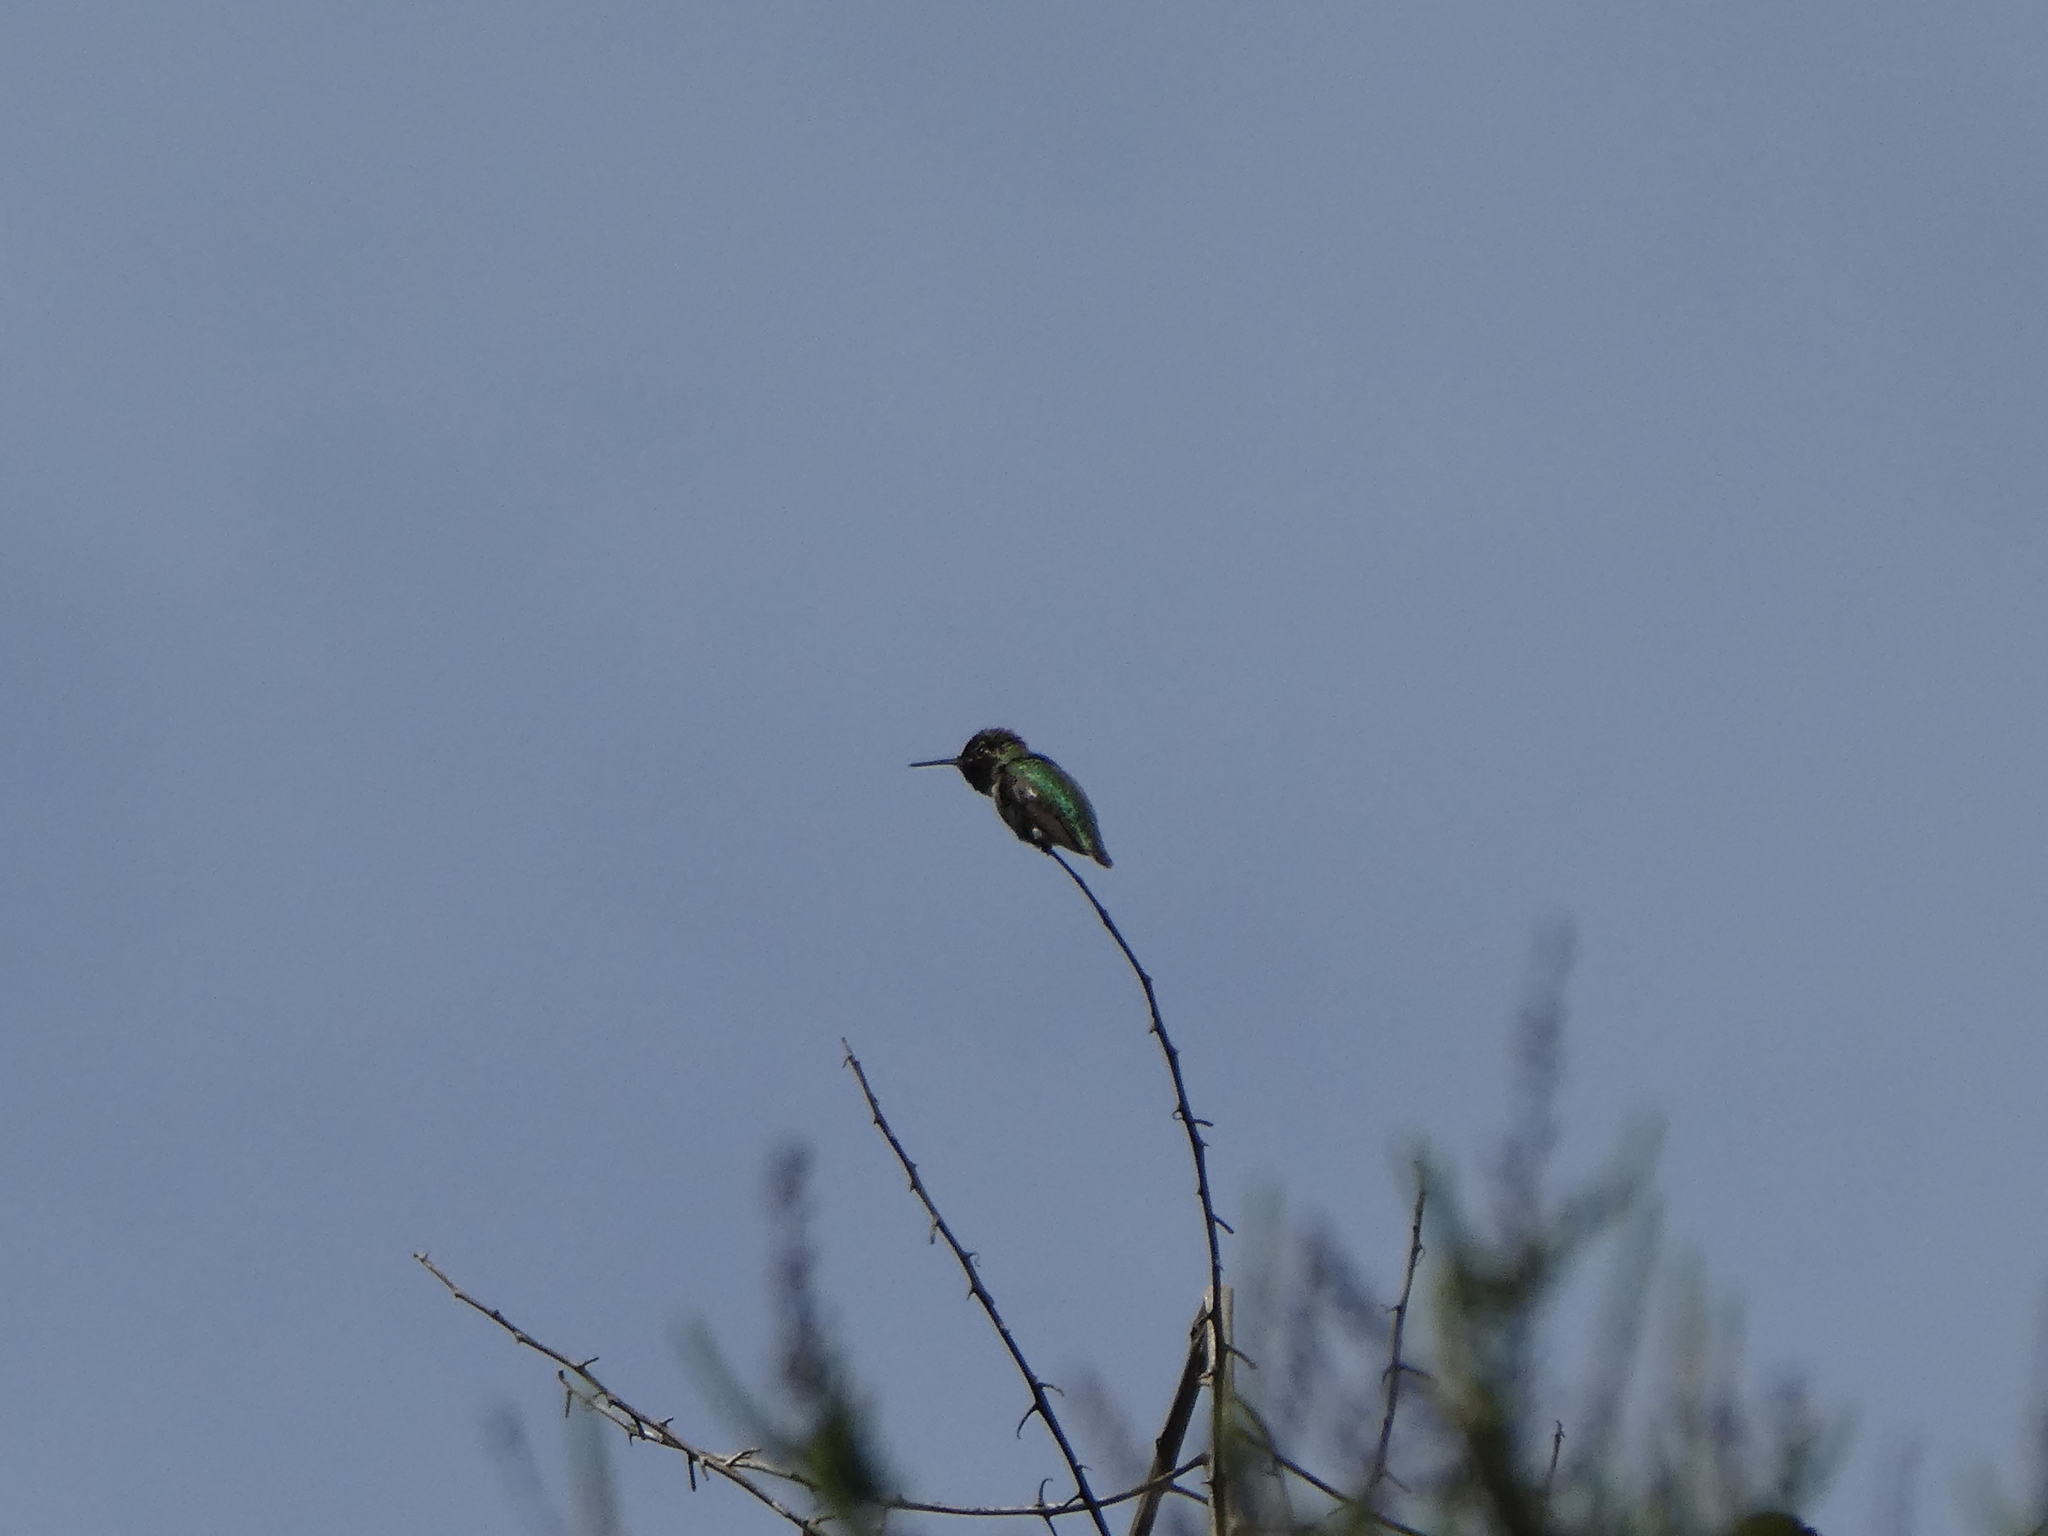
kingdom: Animalia
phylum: Chordata
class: Aves
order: Apodiformes
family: Trochilidae
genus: Calypte
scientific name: Calypte anna
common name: Anna's hummingbird
